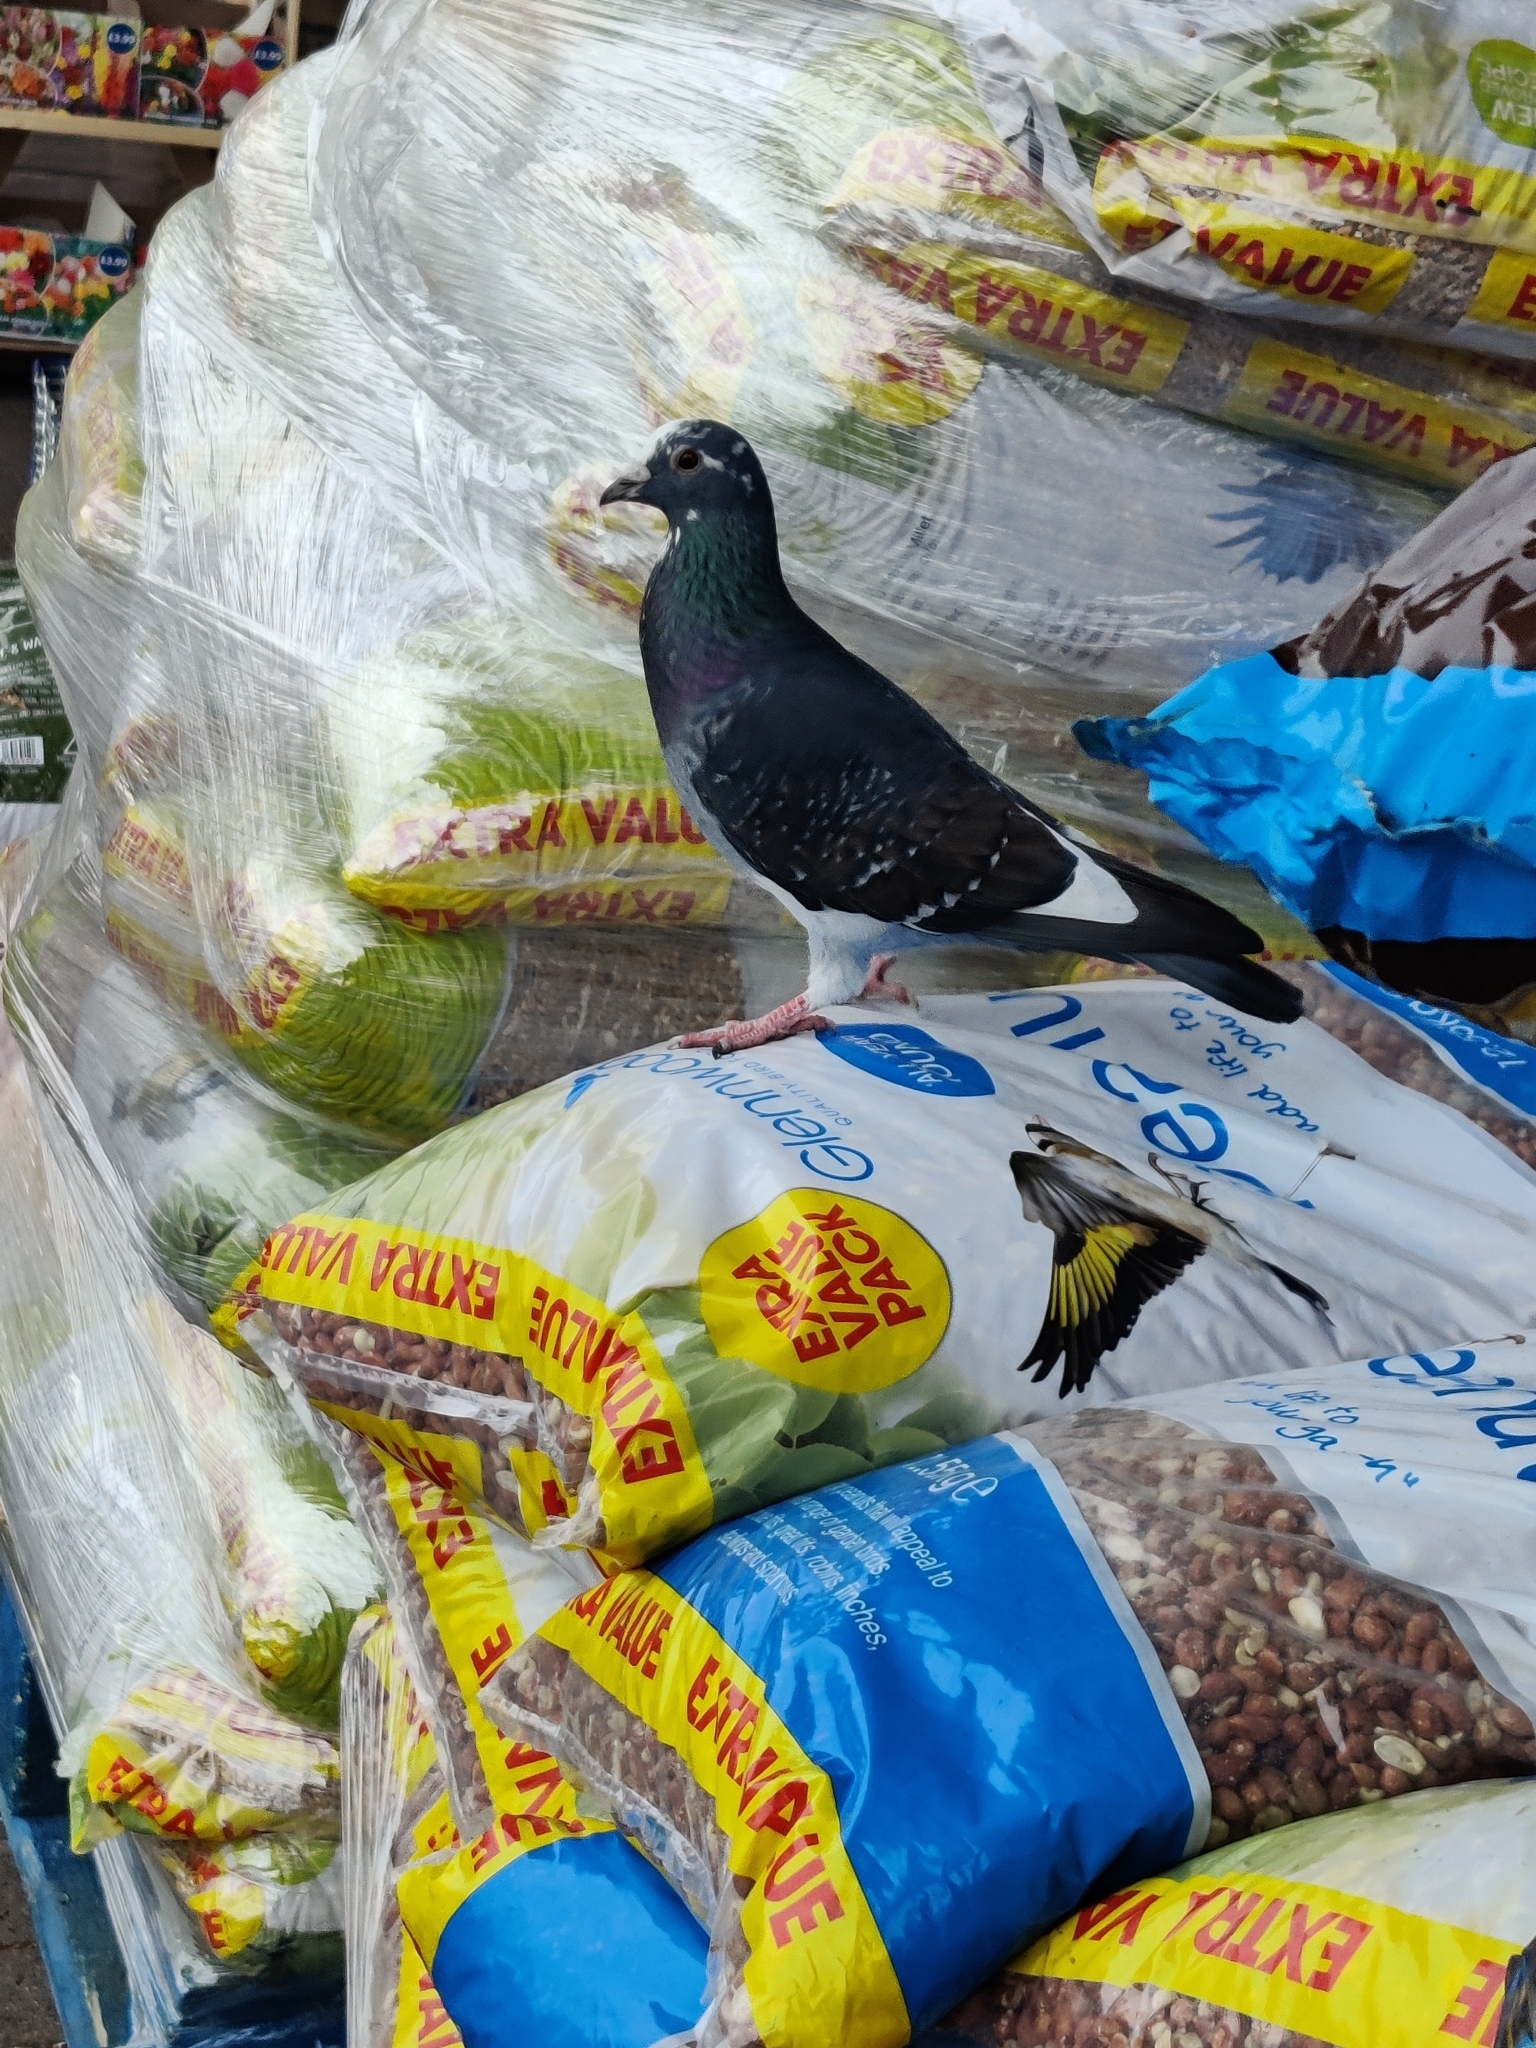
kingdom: Animalia
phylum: Chordata
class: Aves
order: Columbiformes
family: Columbidae
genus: Columba
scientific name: Columba livia
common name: Rock pigeon
